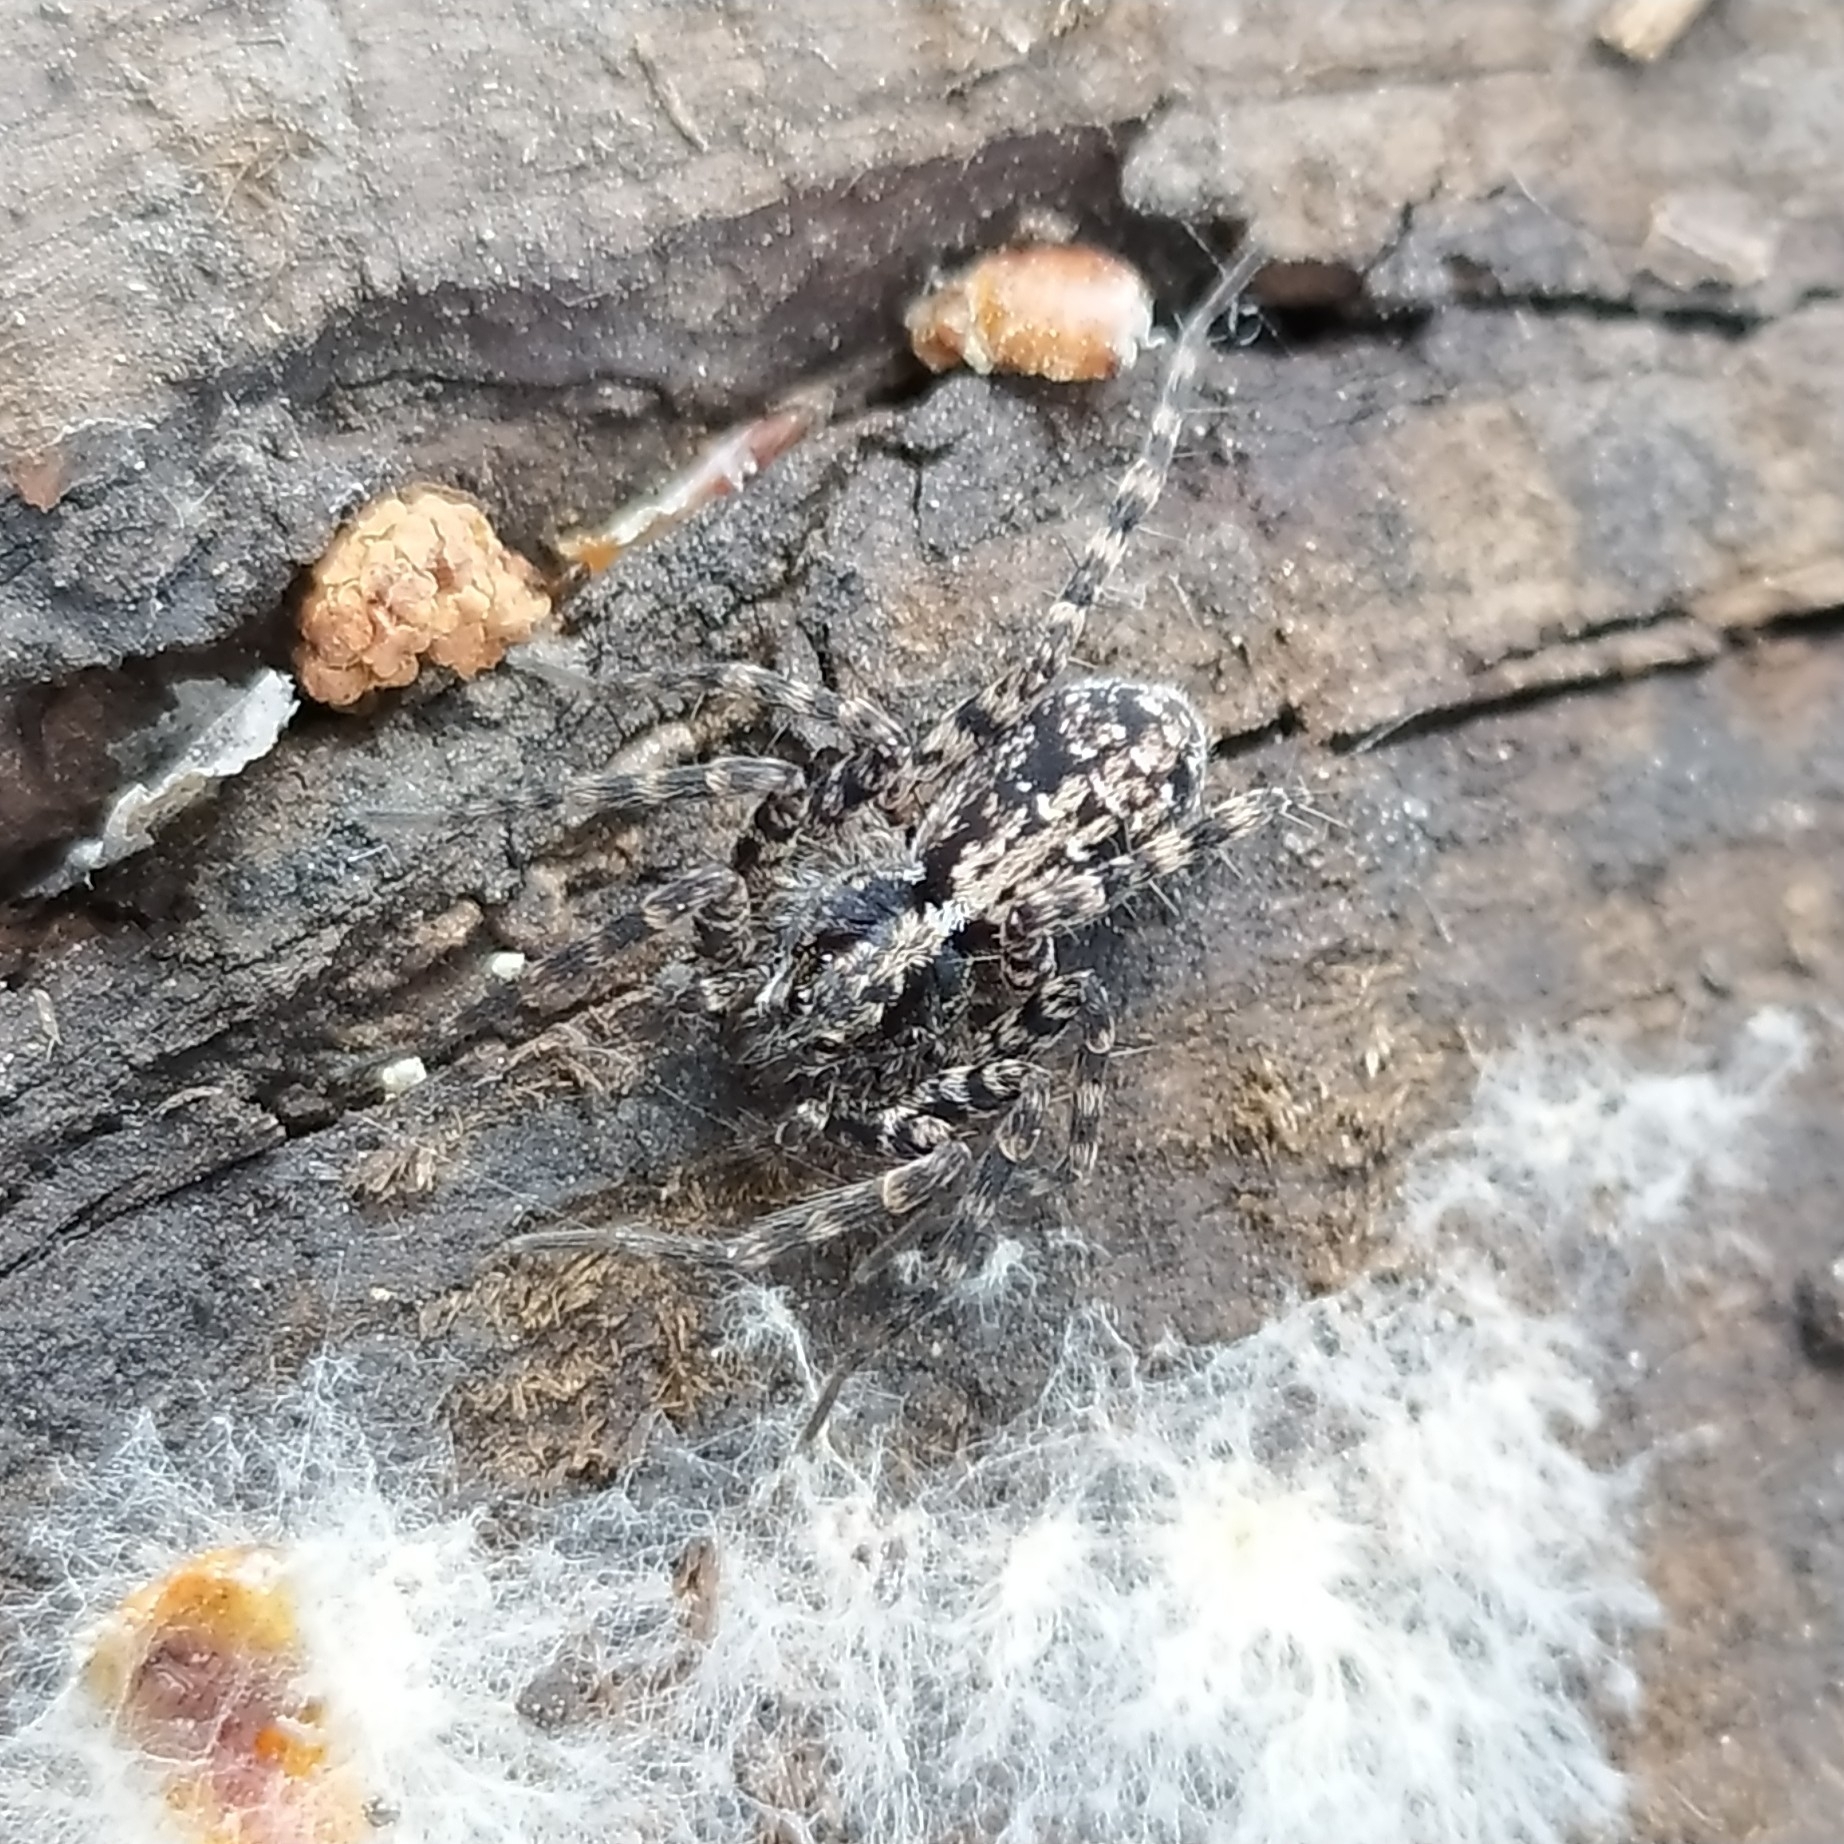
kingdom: Animalia
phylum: Arthropoda
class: Arachnida
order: Araneae
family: Lycosidae
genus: Acantholycosa
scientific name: Acantholycosa lignaria
